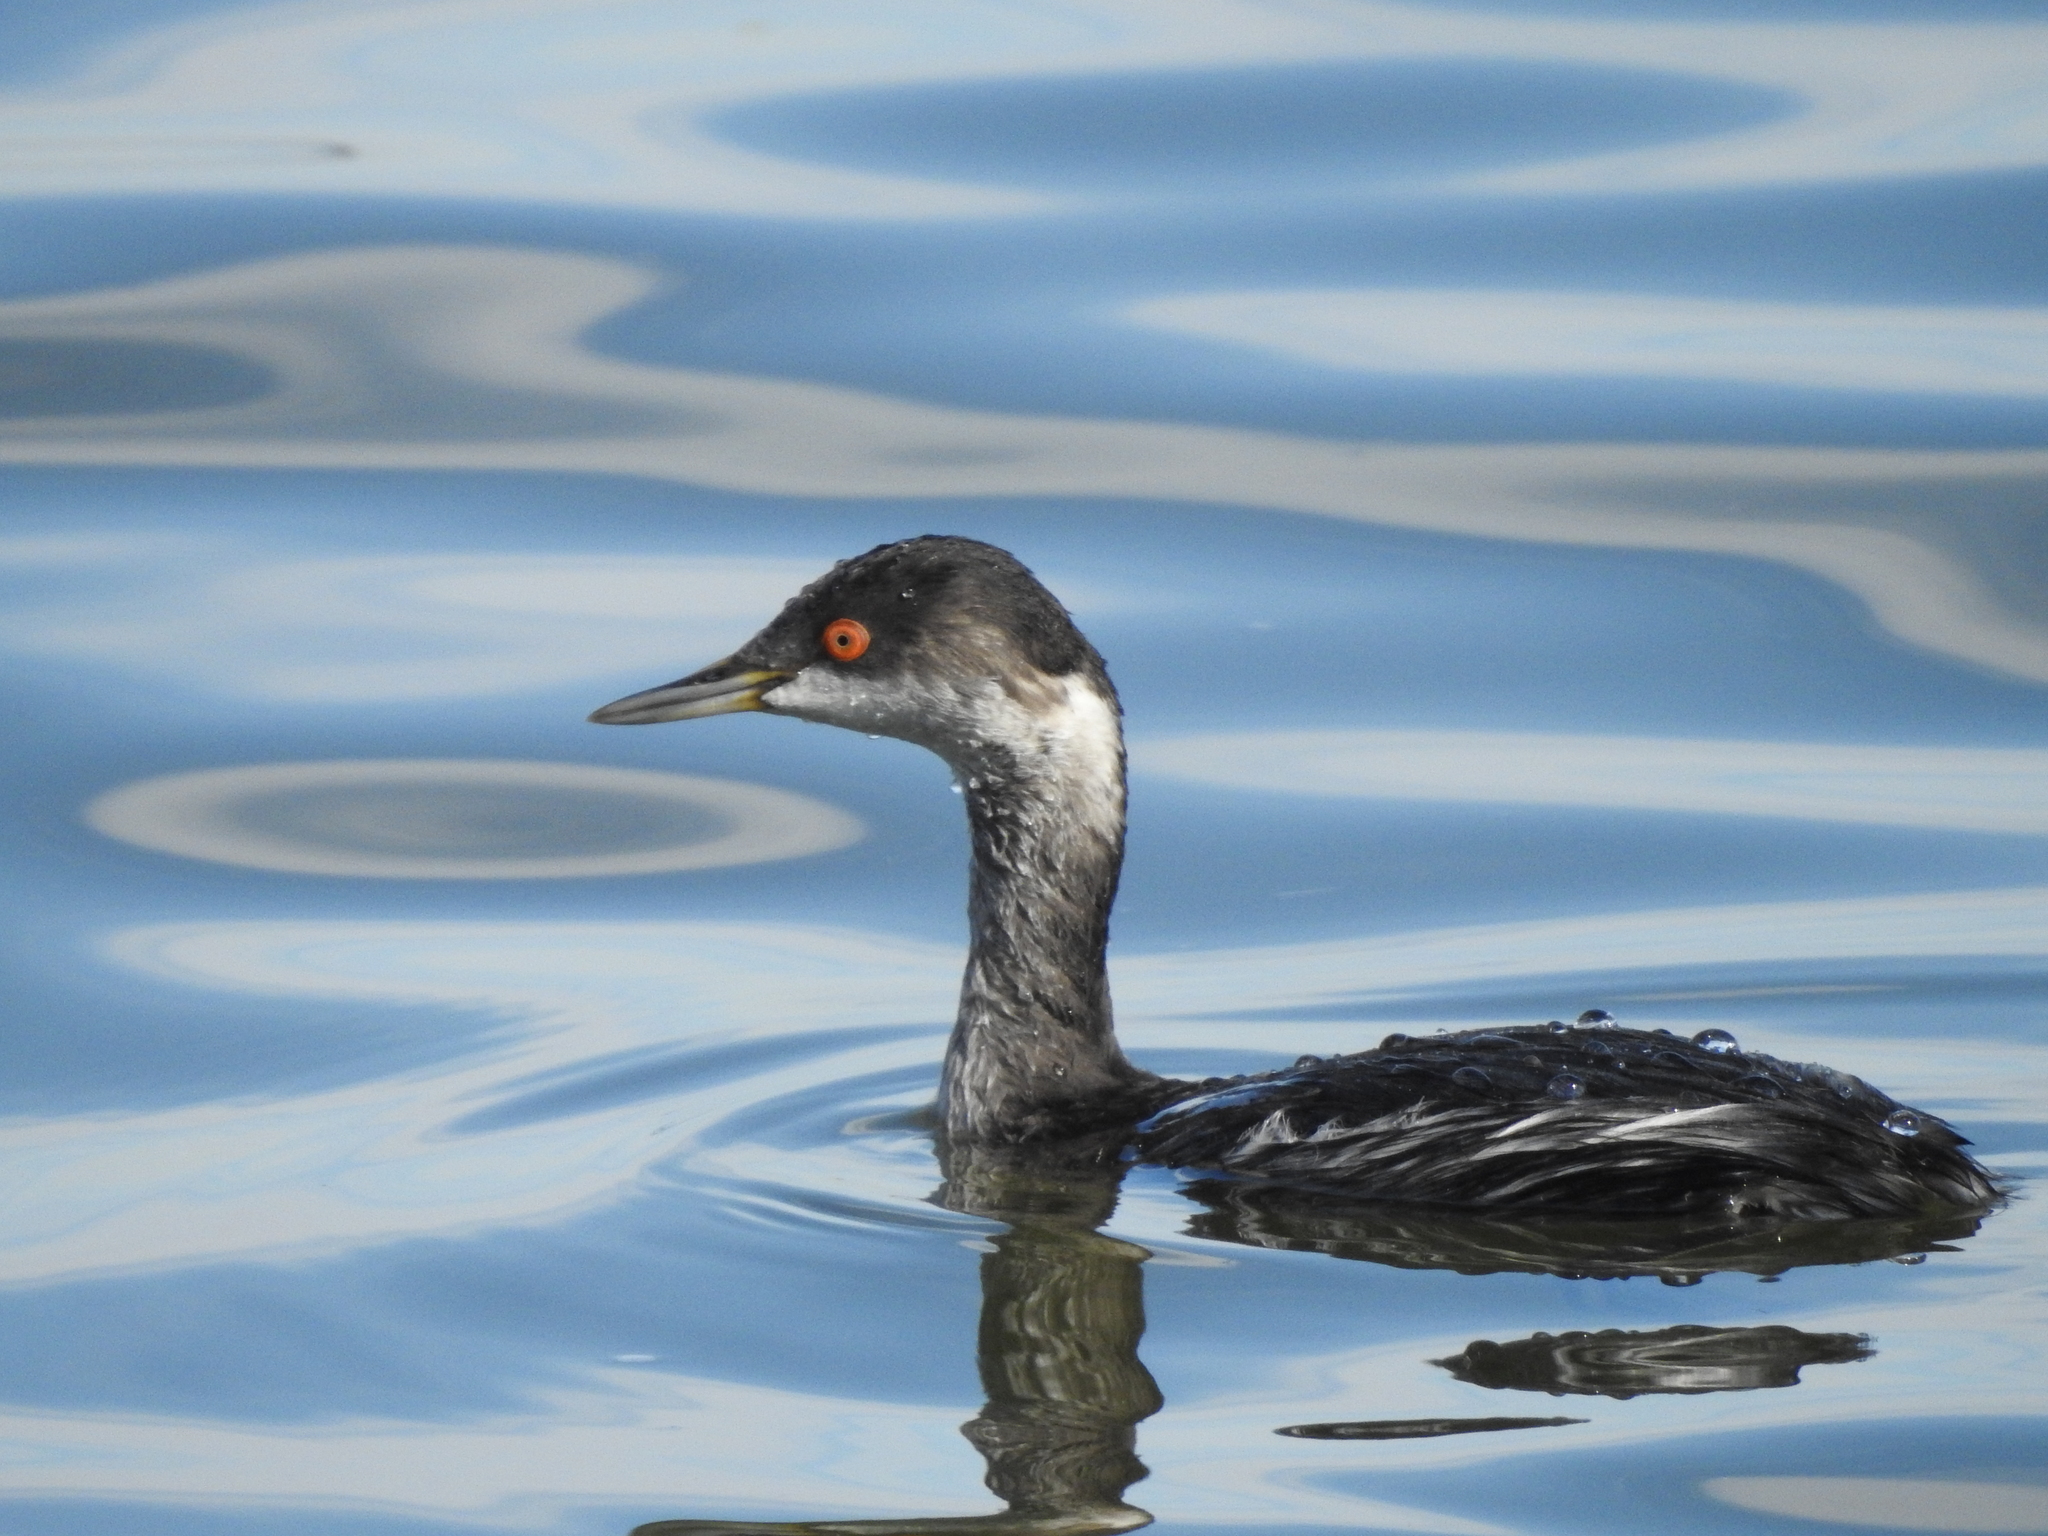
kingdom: Animalia
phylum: Chordata
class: Aves
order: Podicipediformes
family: Podicipedidae
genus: Podiceps
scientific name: Podiceps nigricollis
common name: Black-necked grebe
